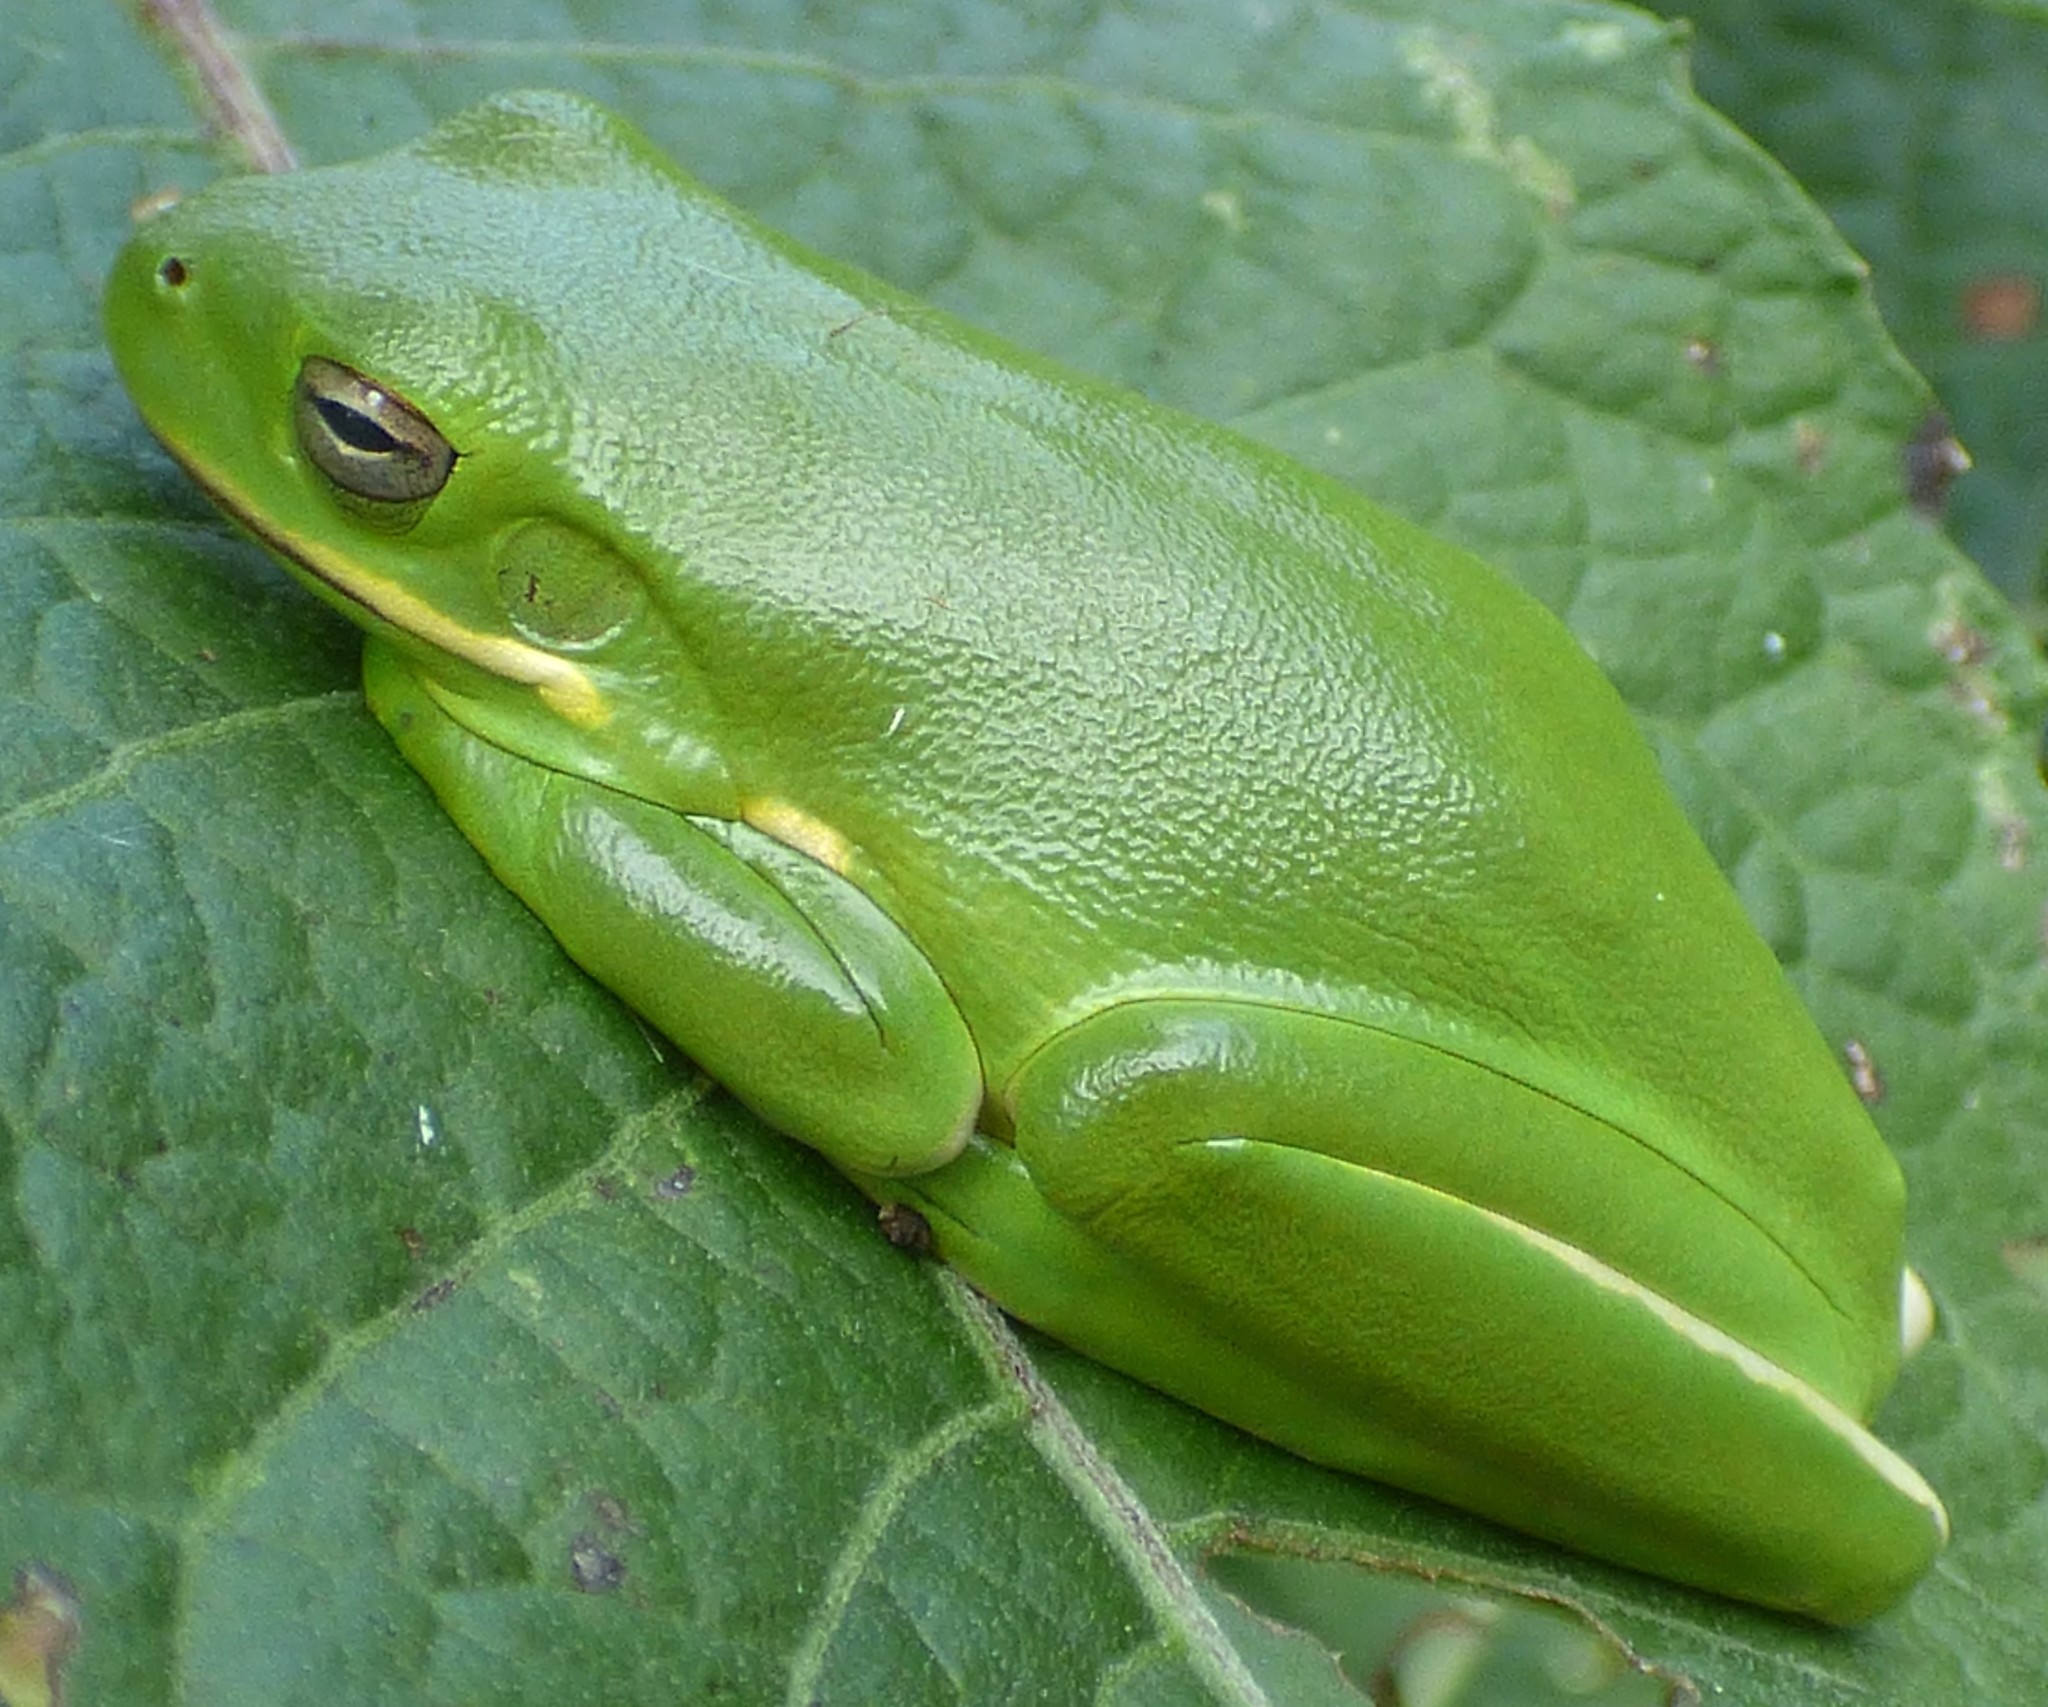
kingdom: Animalia
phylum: Chordata
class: Amphibia
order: Anura
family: Hylidae
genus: Dryophytes
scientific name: Dryophytes cinereus
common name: Green treefrog
